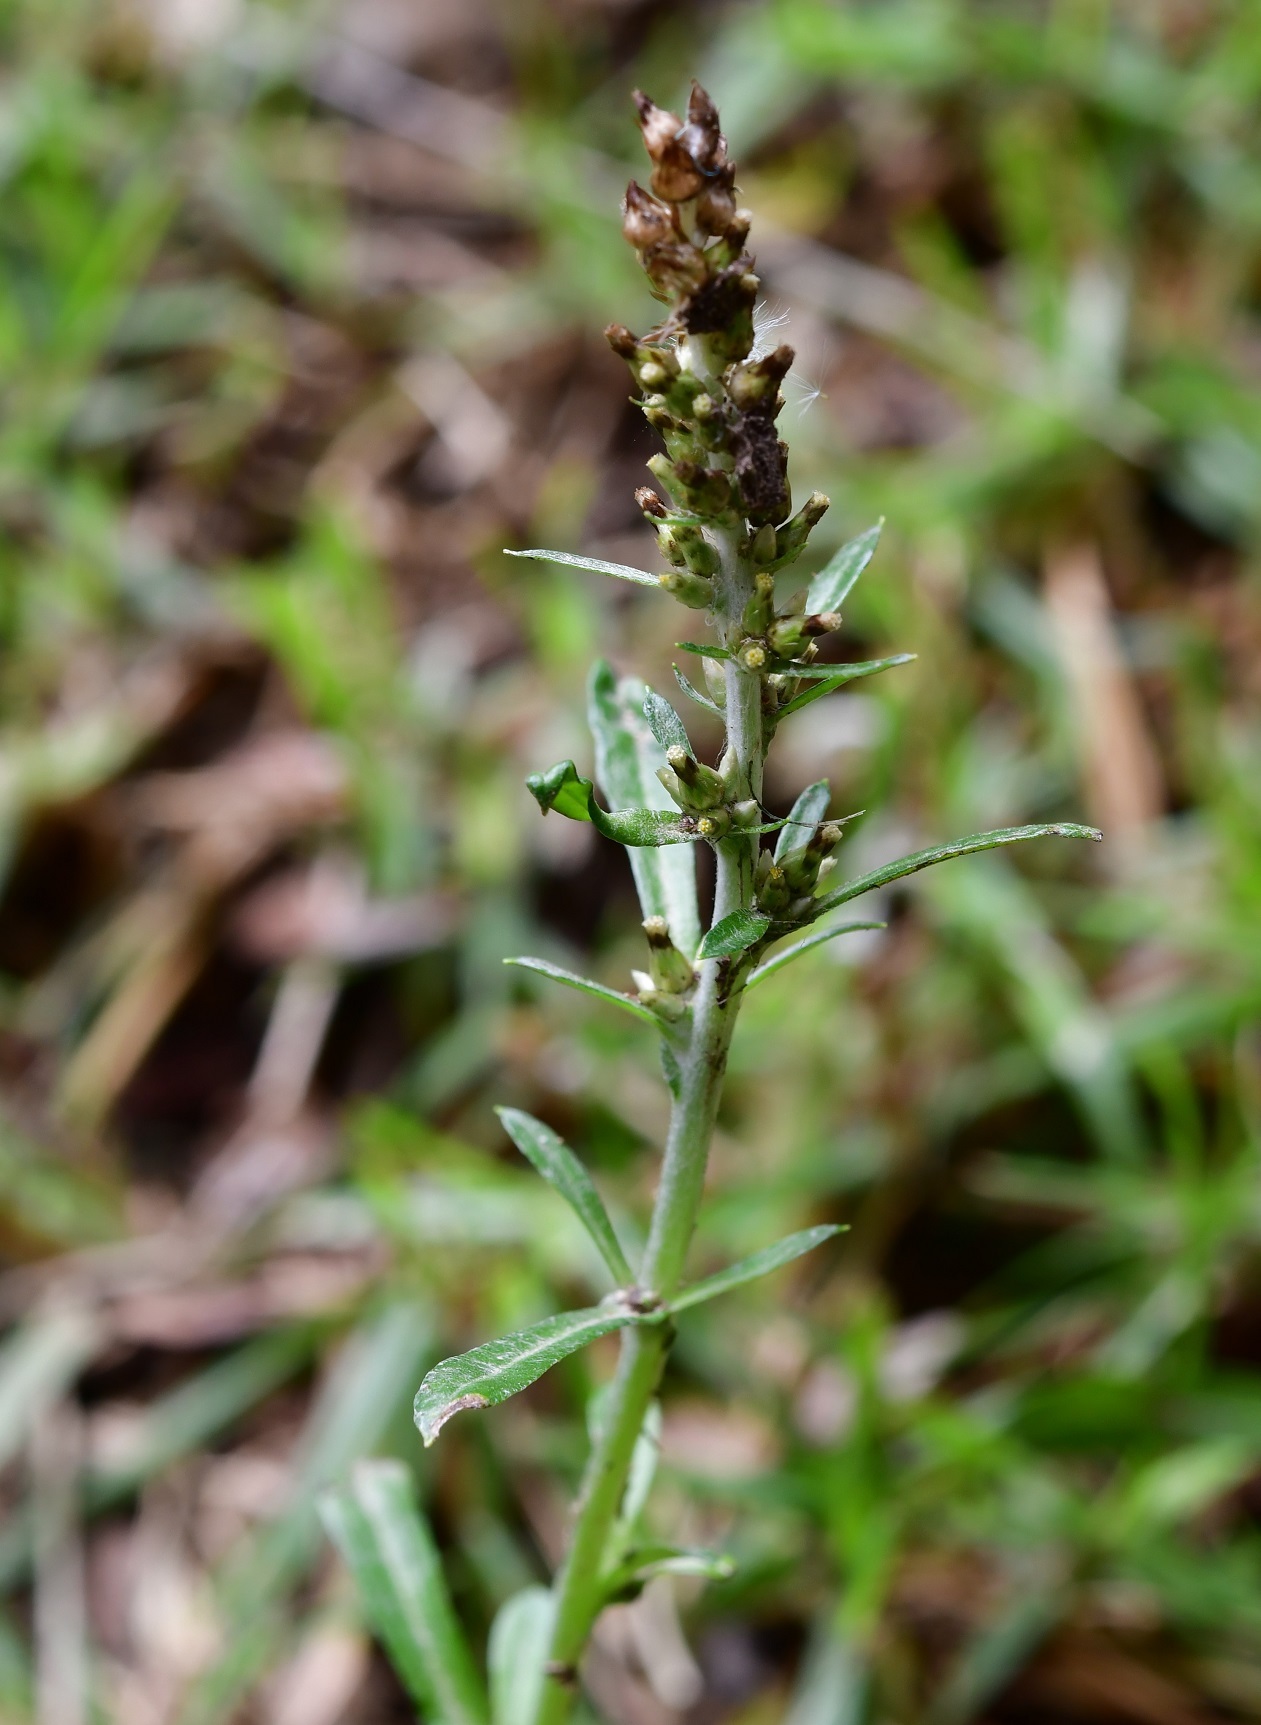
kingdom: Plantae
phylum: Tracheophyta
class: Magnoliopsida
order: Asterales
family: Asteraceae
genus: Gamochaeta
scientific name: Gamochaeta americana
